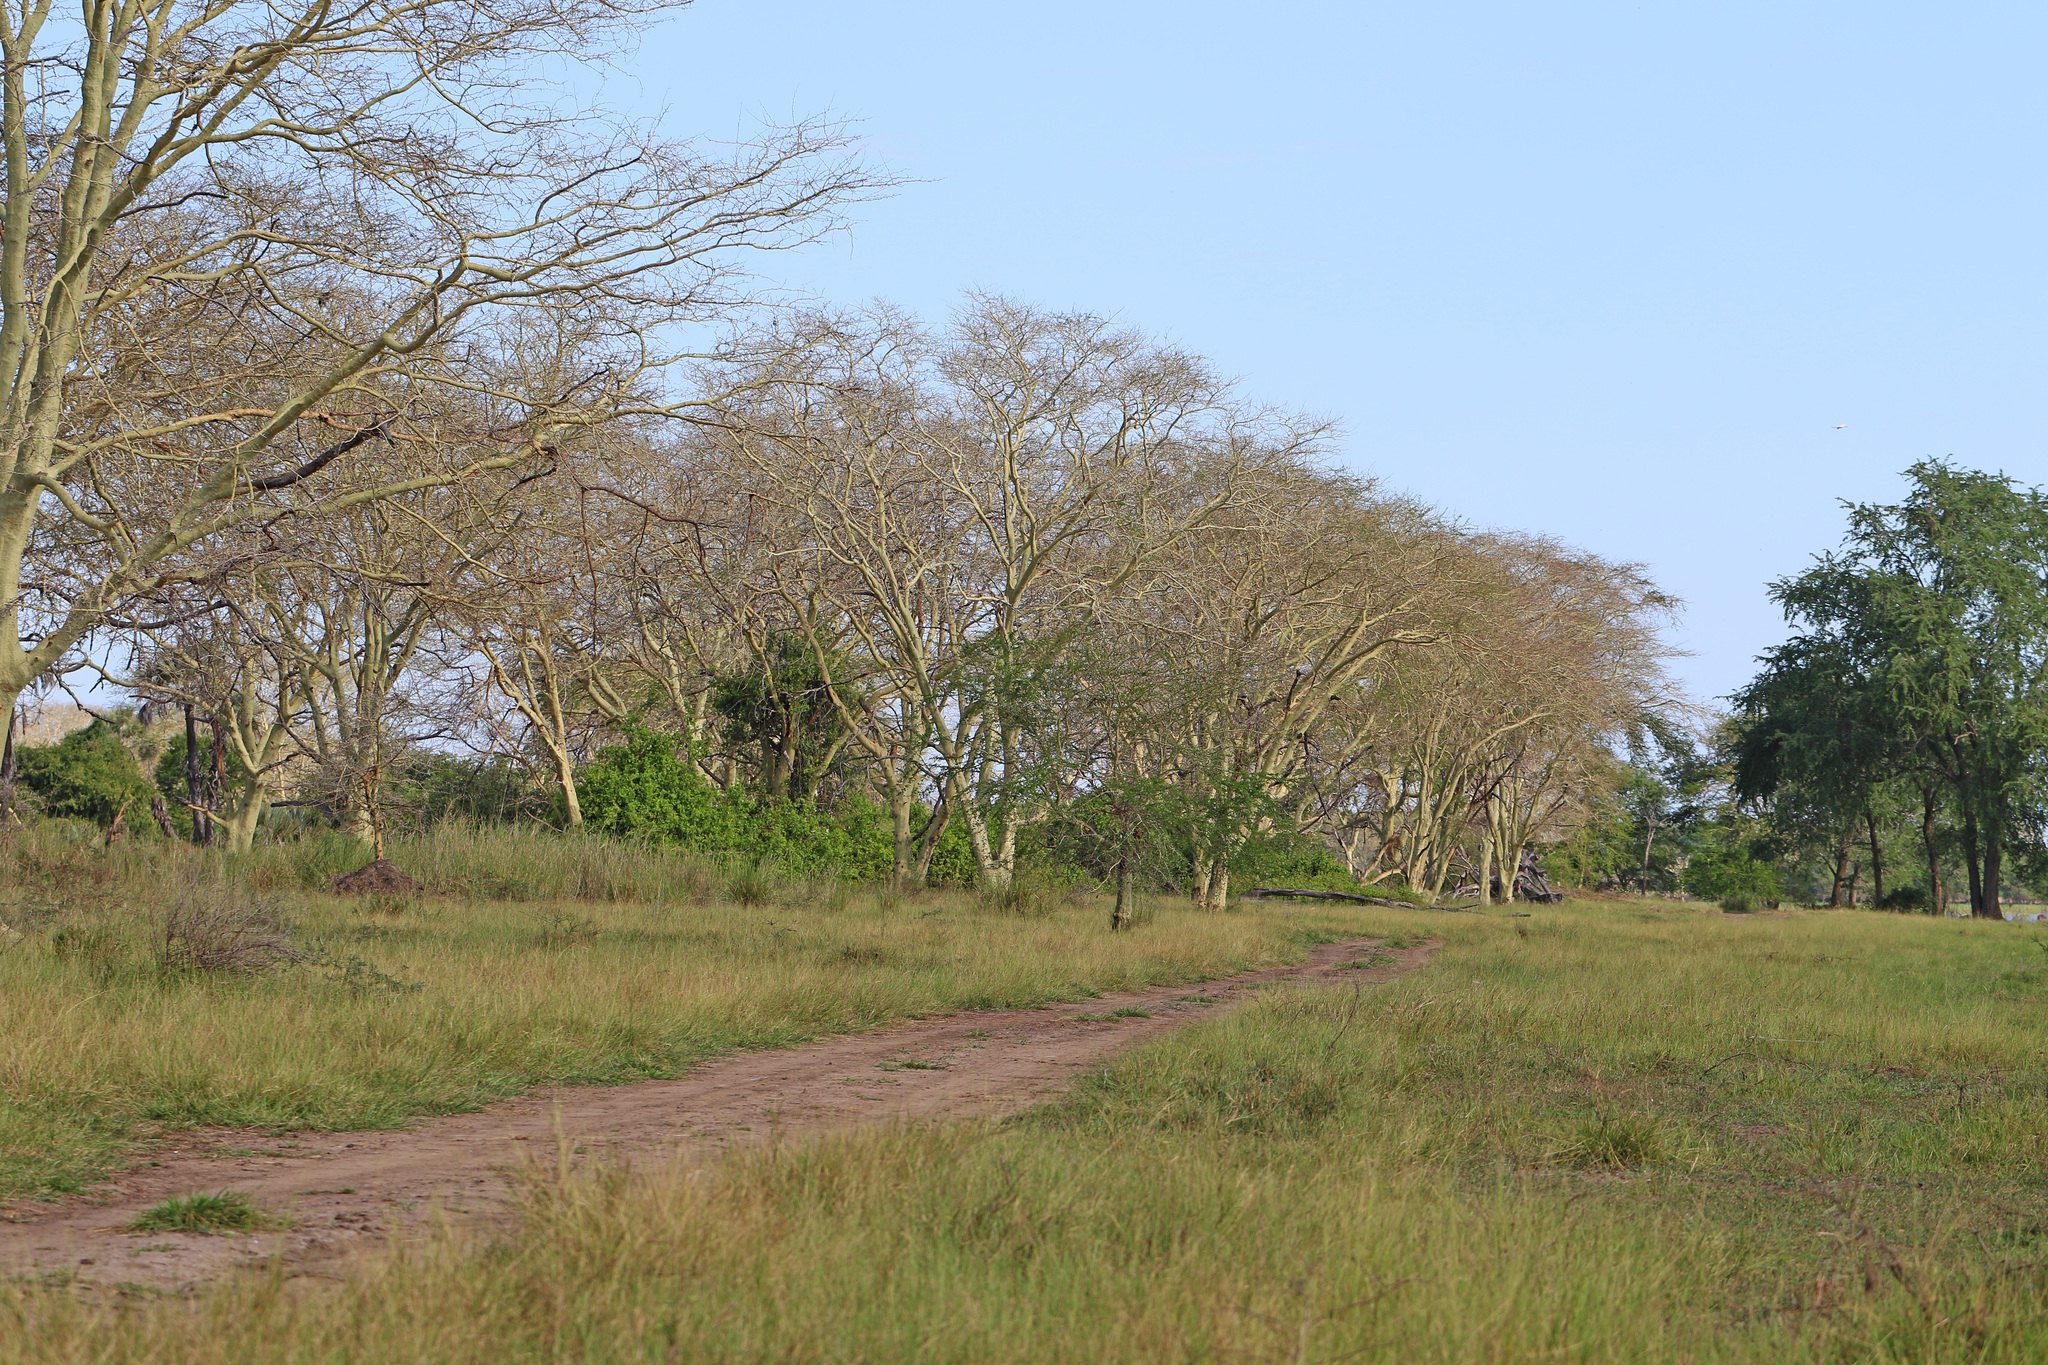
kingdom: Plantae
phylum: Tracheophyta
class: Magnoliopsida
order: Fabales
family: Fabaceae
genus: Vachellia
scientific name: Vachellia xanthophloea
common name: Fever tree
